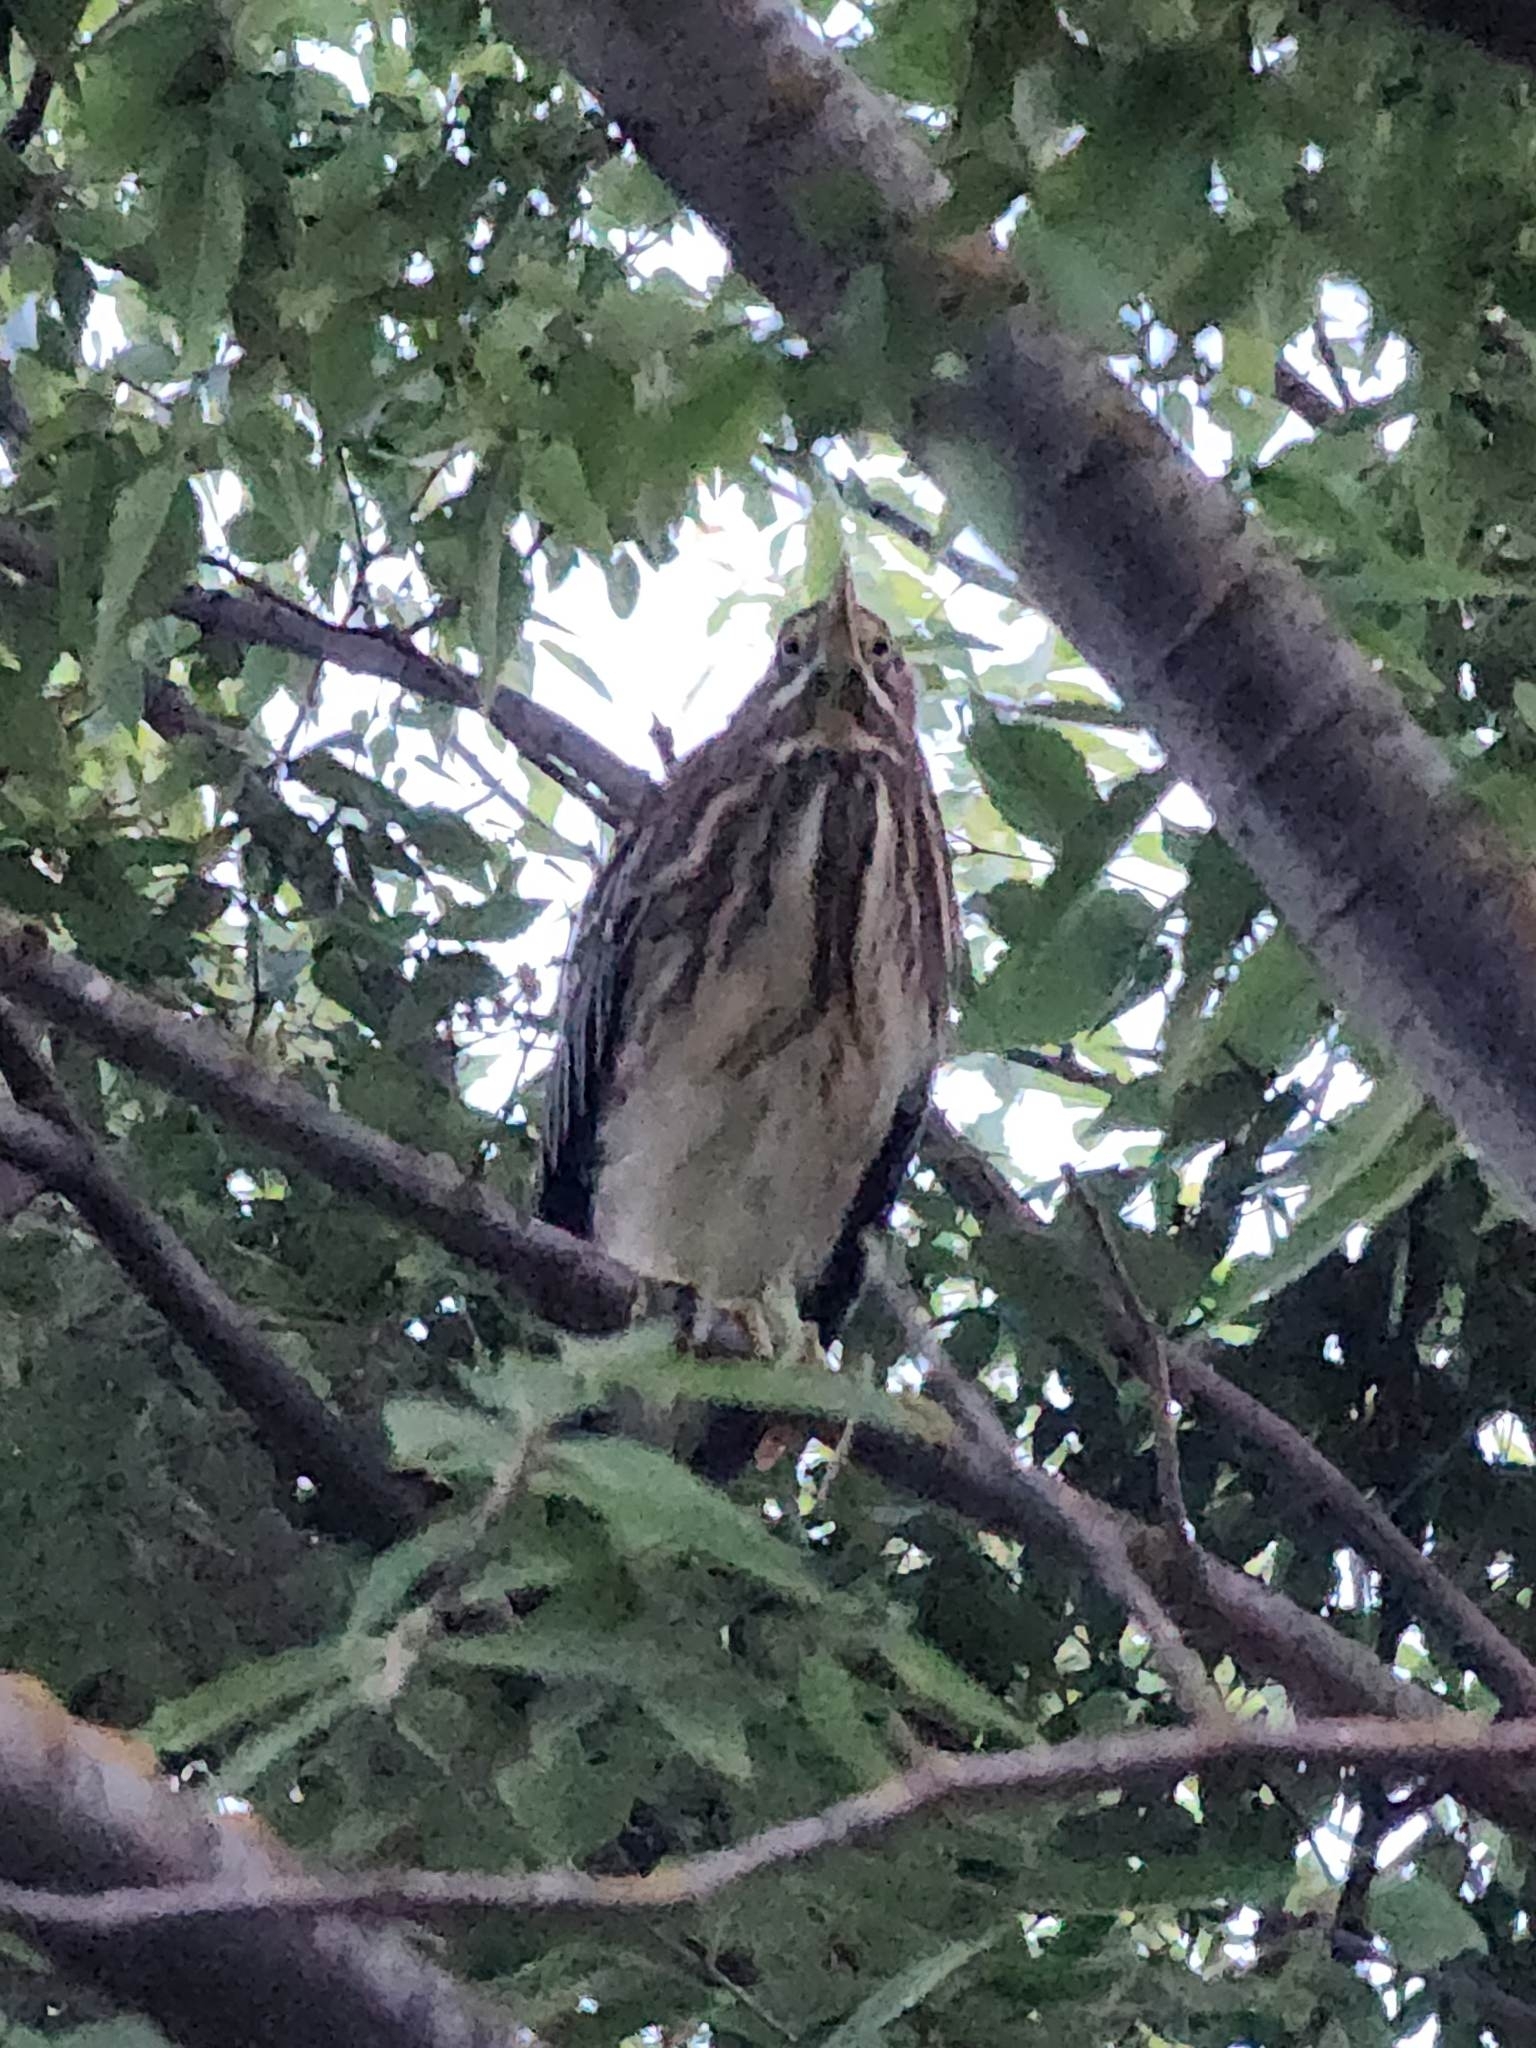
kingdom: Animalia
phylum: Chordata
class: Aves
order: Pelecaniformes
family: Ardeidae
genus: Butorides
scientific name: Butorides virescens
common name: Green heron
